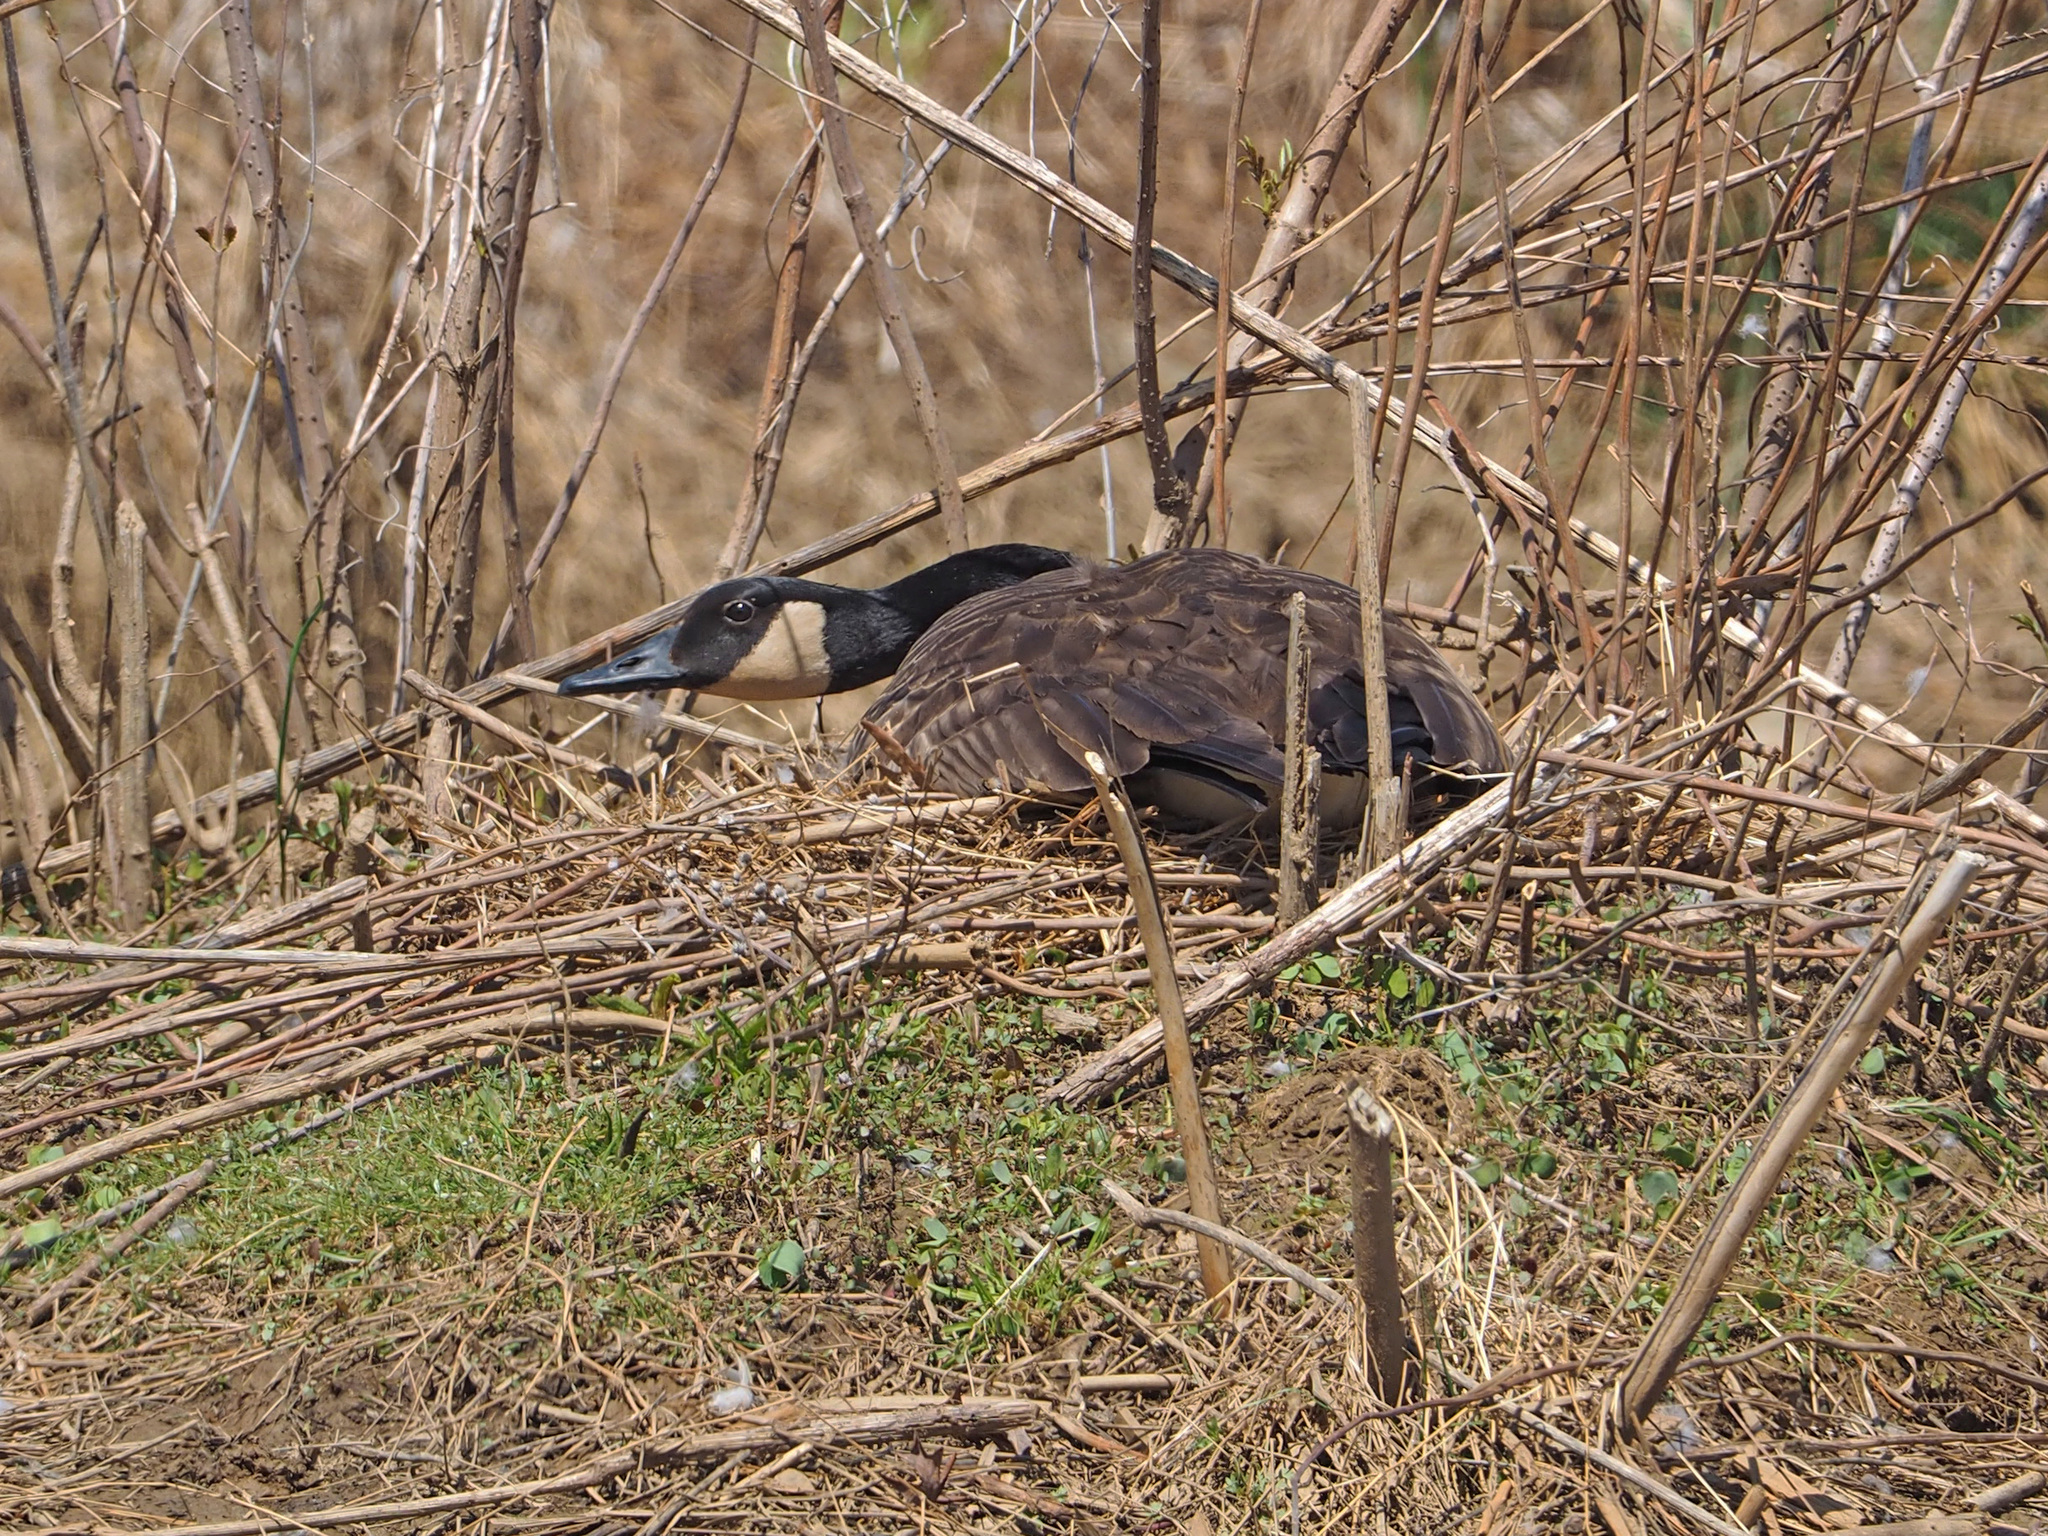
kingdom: Animalia
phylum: Chordata
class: Aves
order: Anseriformes
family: Anatidae
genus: Branta
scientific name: Branta canadensis
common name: Canada goose
